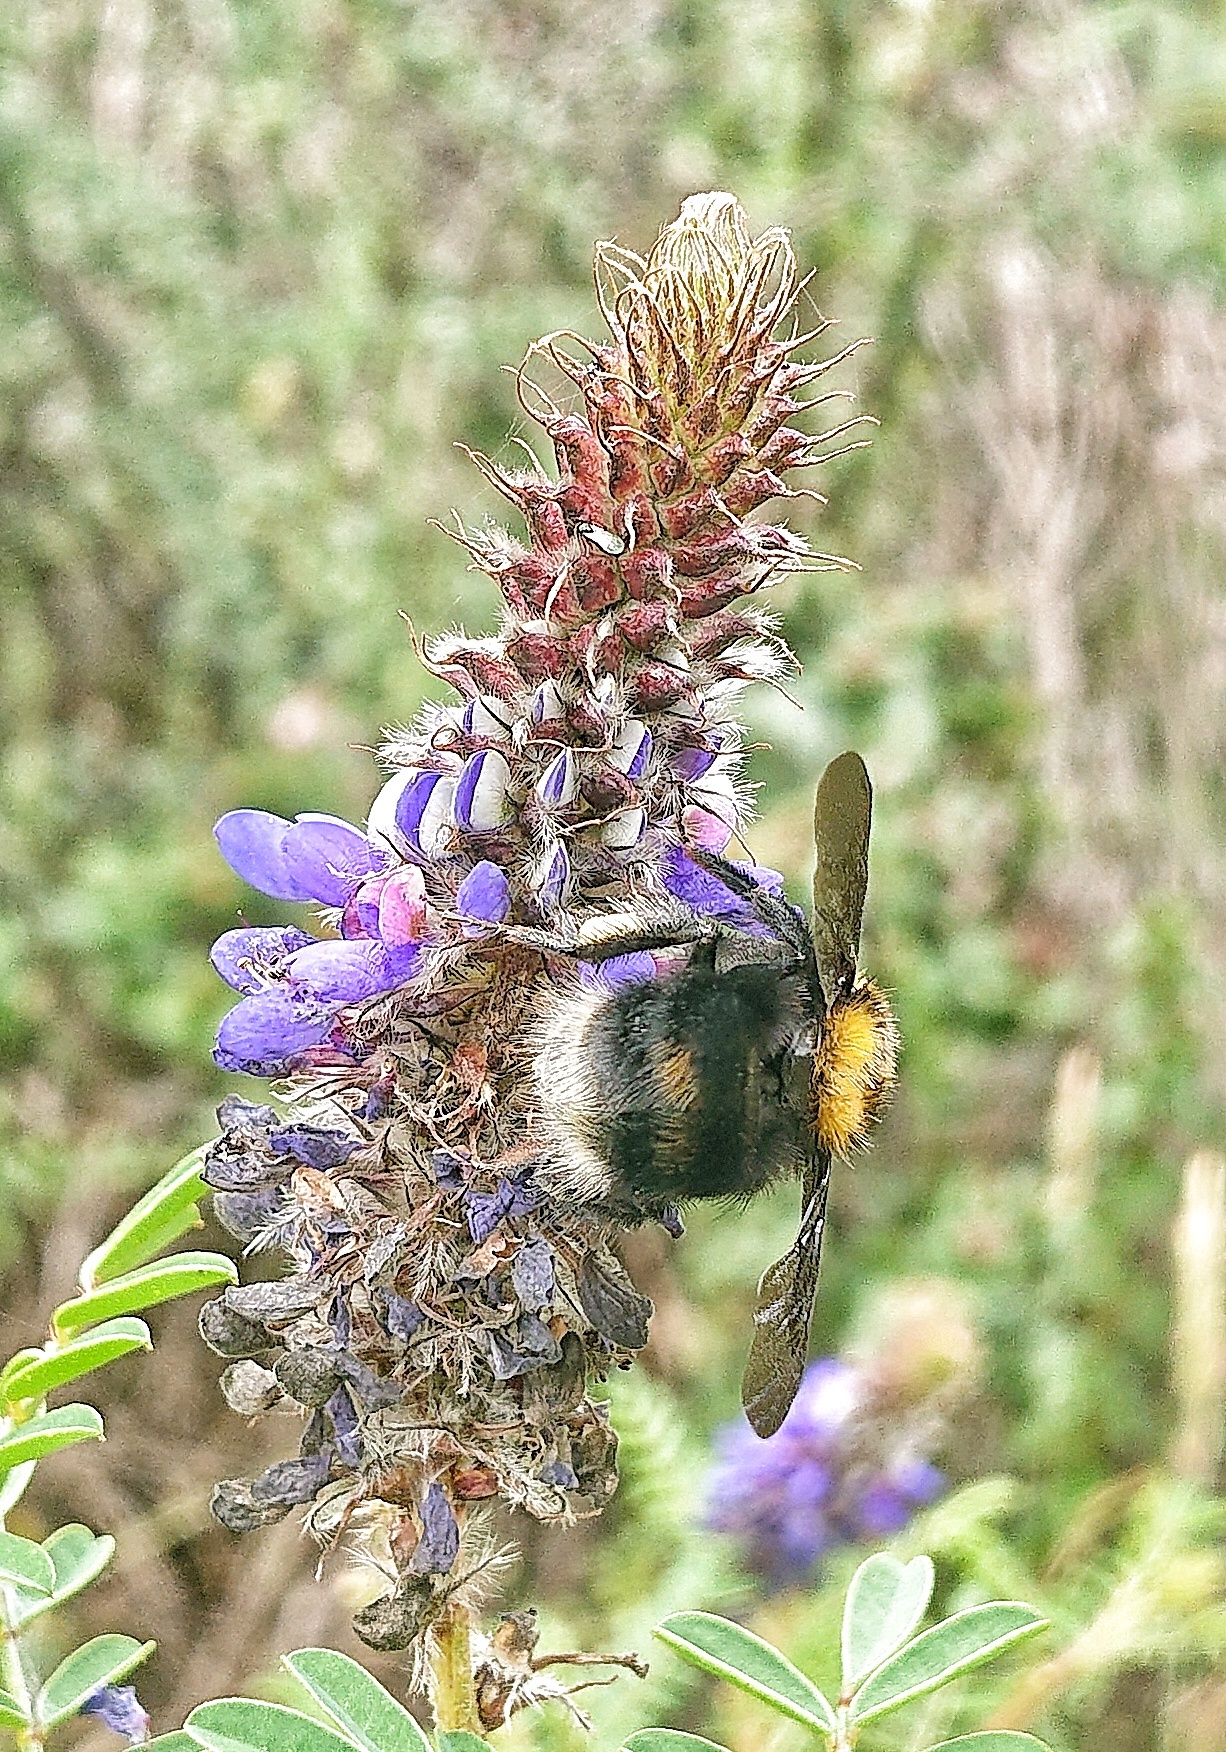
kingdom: Animalia
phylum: Arthropoda
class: Insecta
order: Hymenoptera
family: Apidae
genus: Bombus
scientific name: Bombus hortulanus
